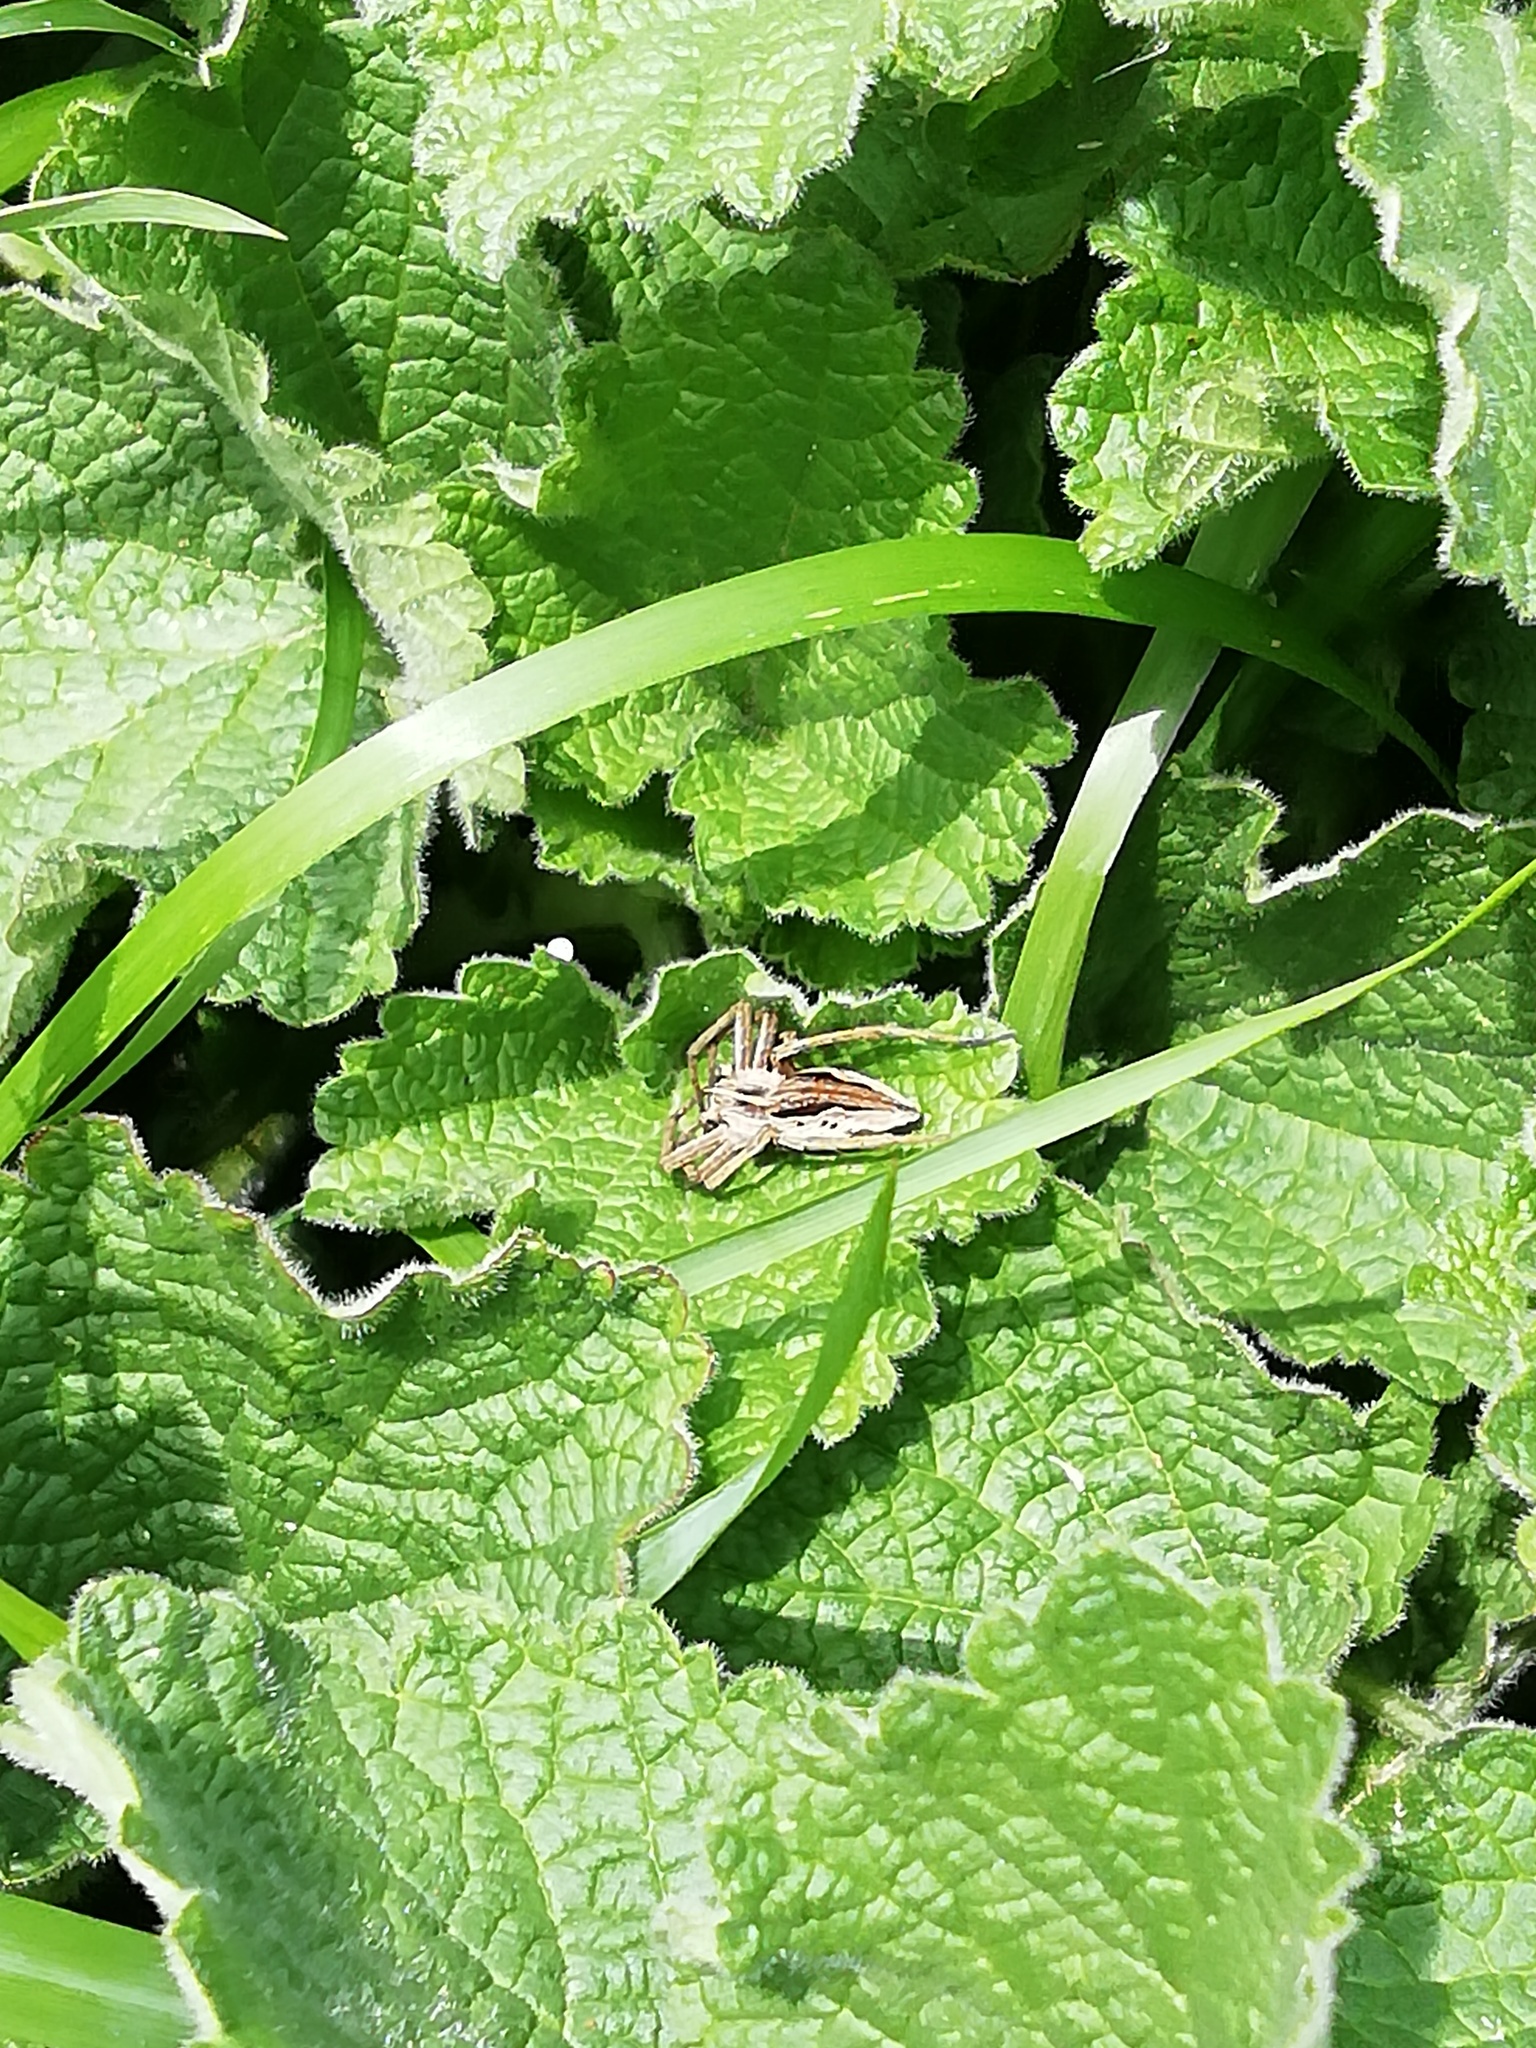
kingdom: Animalia
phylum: Arthropoda
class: Arachnida
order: Araneae
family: Pisauridae
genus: Pisaura
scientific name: Pisaura mirabilis
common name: Tent spider
